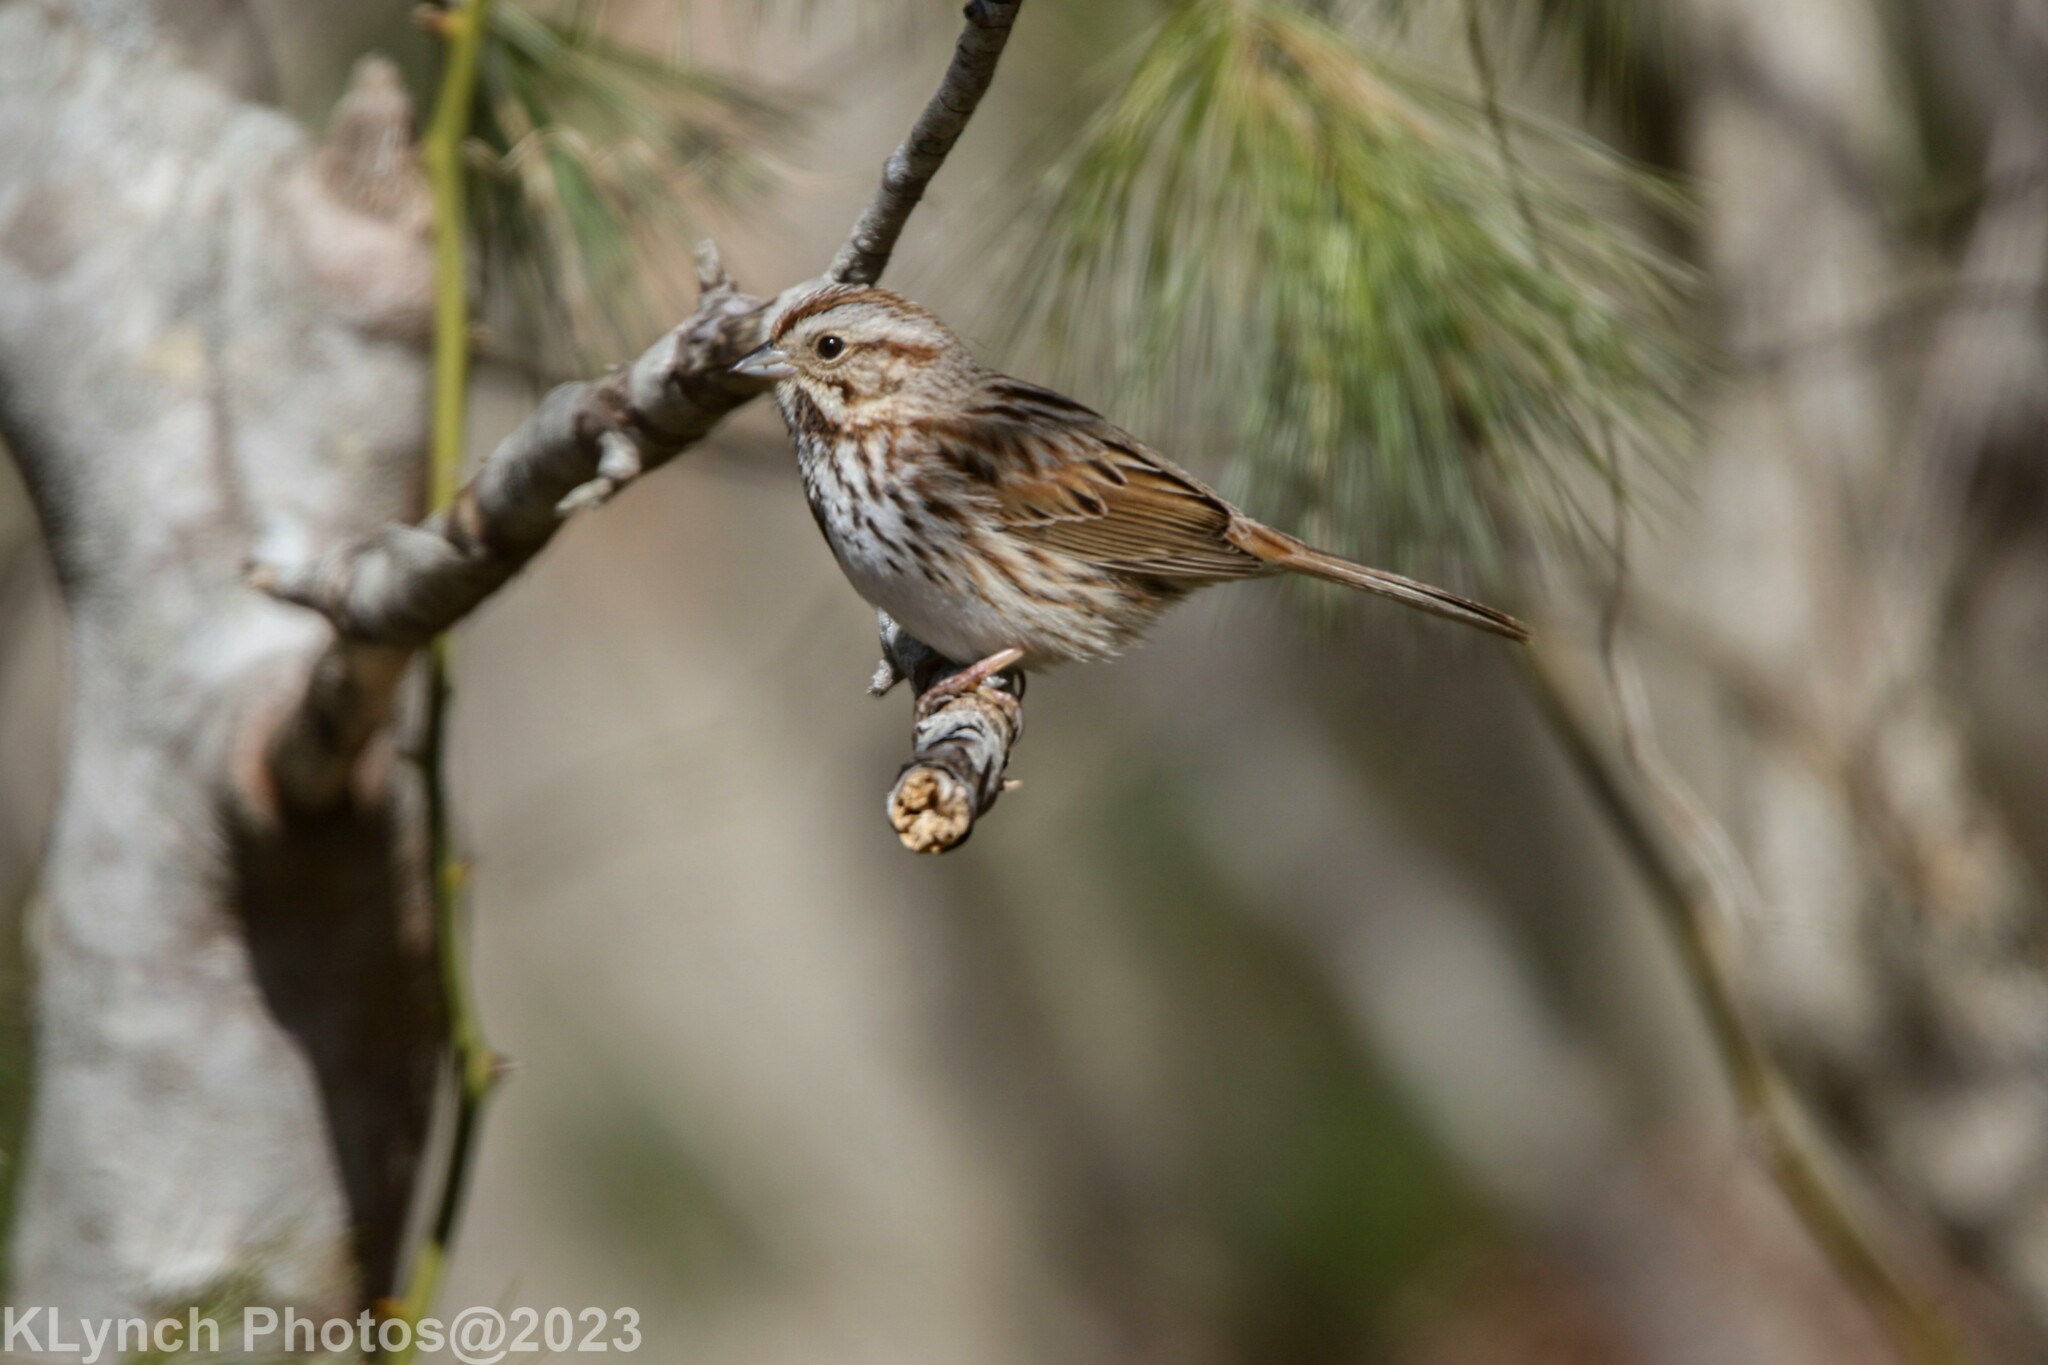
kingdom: Animalia
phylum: Chordata
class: Aves
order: Passeriformes
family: Passerellidae
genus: Melospiza
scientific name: Melospiza melodia
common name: Song sparrow
